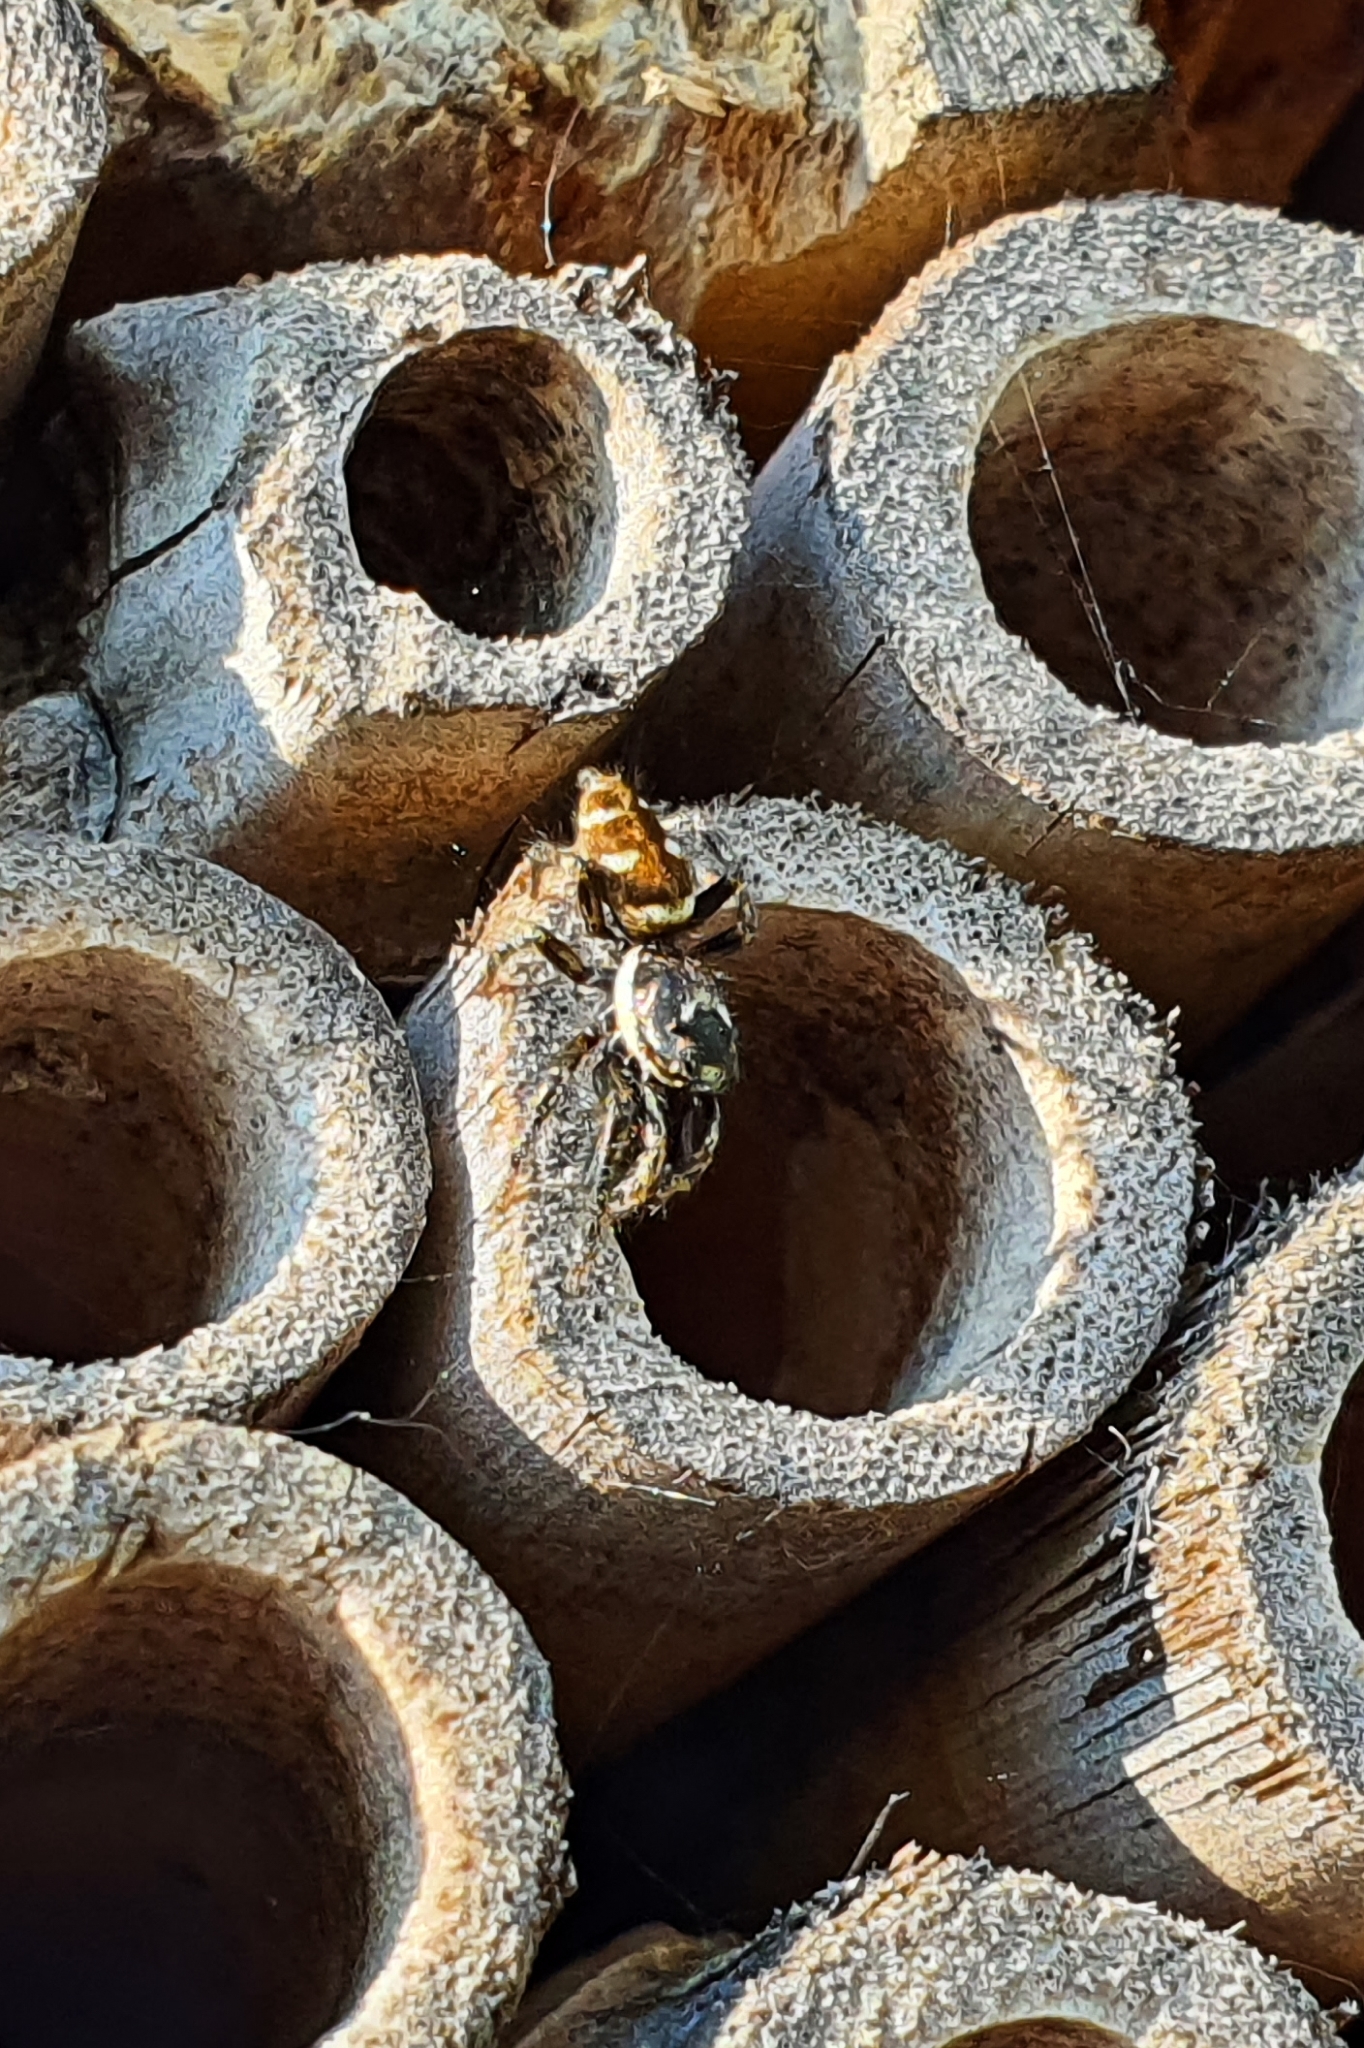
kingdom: Animalia
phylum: Arthropoda
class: Arachnida
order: Araneae
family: Salticidae
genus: Salticus
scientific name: Salticus scenicus
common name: Zebra jumper
